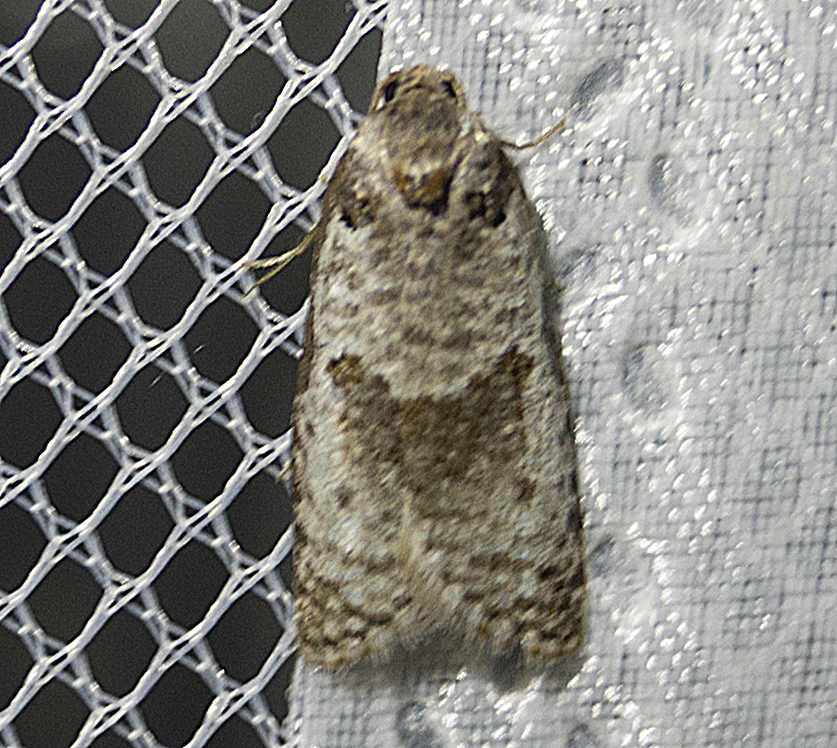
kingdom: Animalia
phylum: Arthropoda
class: Insecta
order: Lepidoptera
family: Tortricidae
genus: Pseudeulia
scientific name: Pseudeulia asinana
